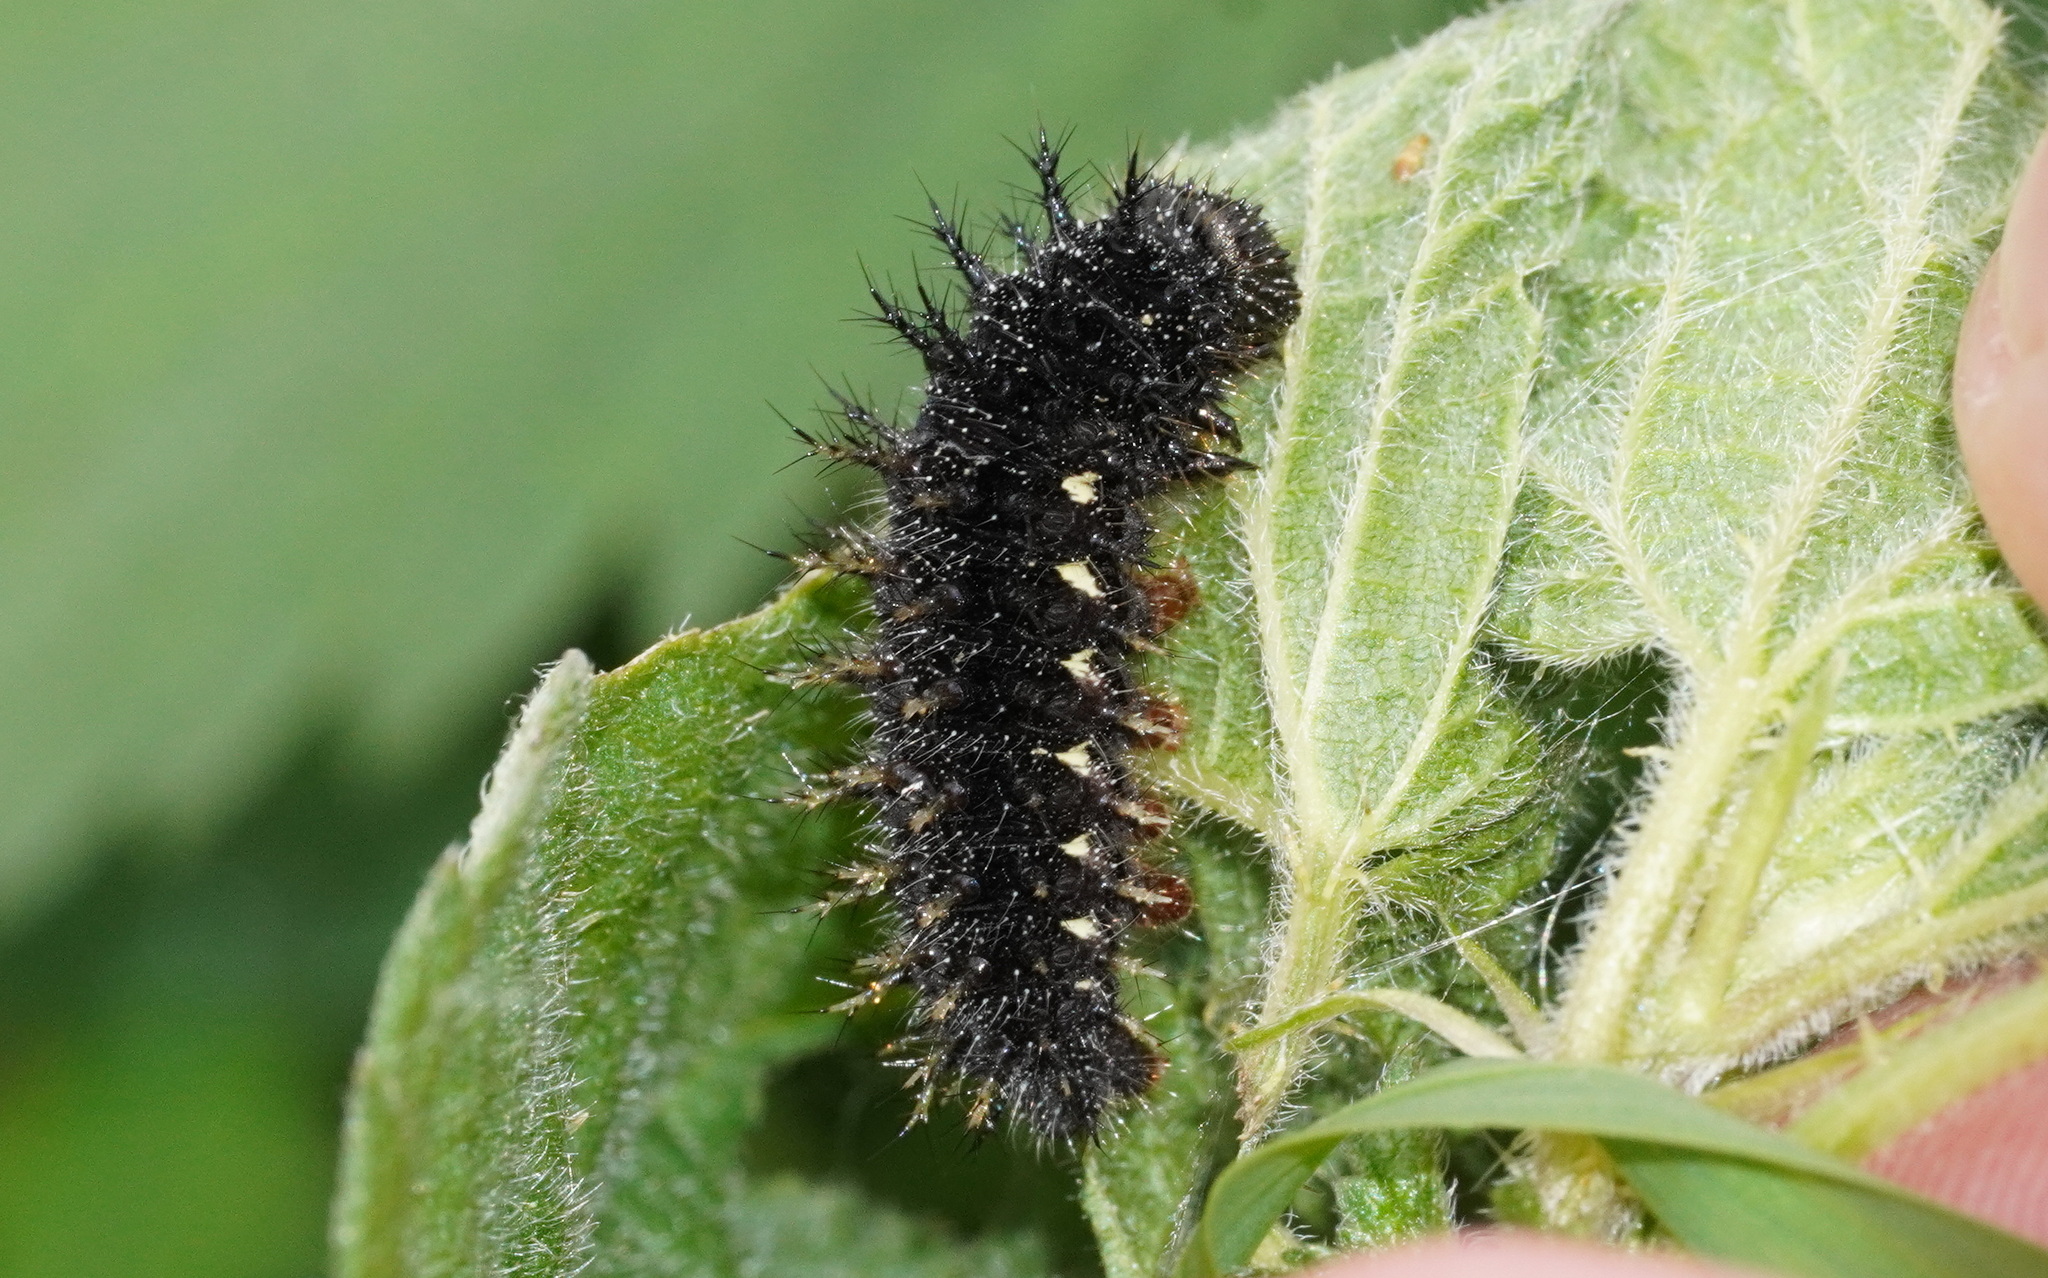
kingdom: Animalia
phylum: Arthropoda
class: Insecta
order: Lepidoptera
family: Nymphalidae
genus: Vanessa
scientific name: Vanessa atalanta
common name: Red admiral
